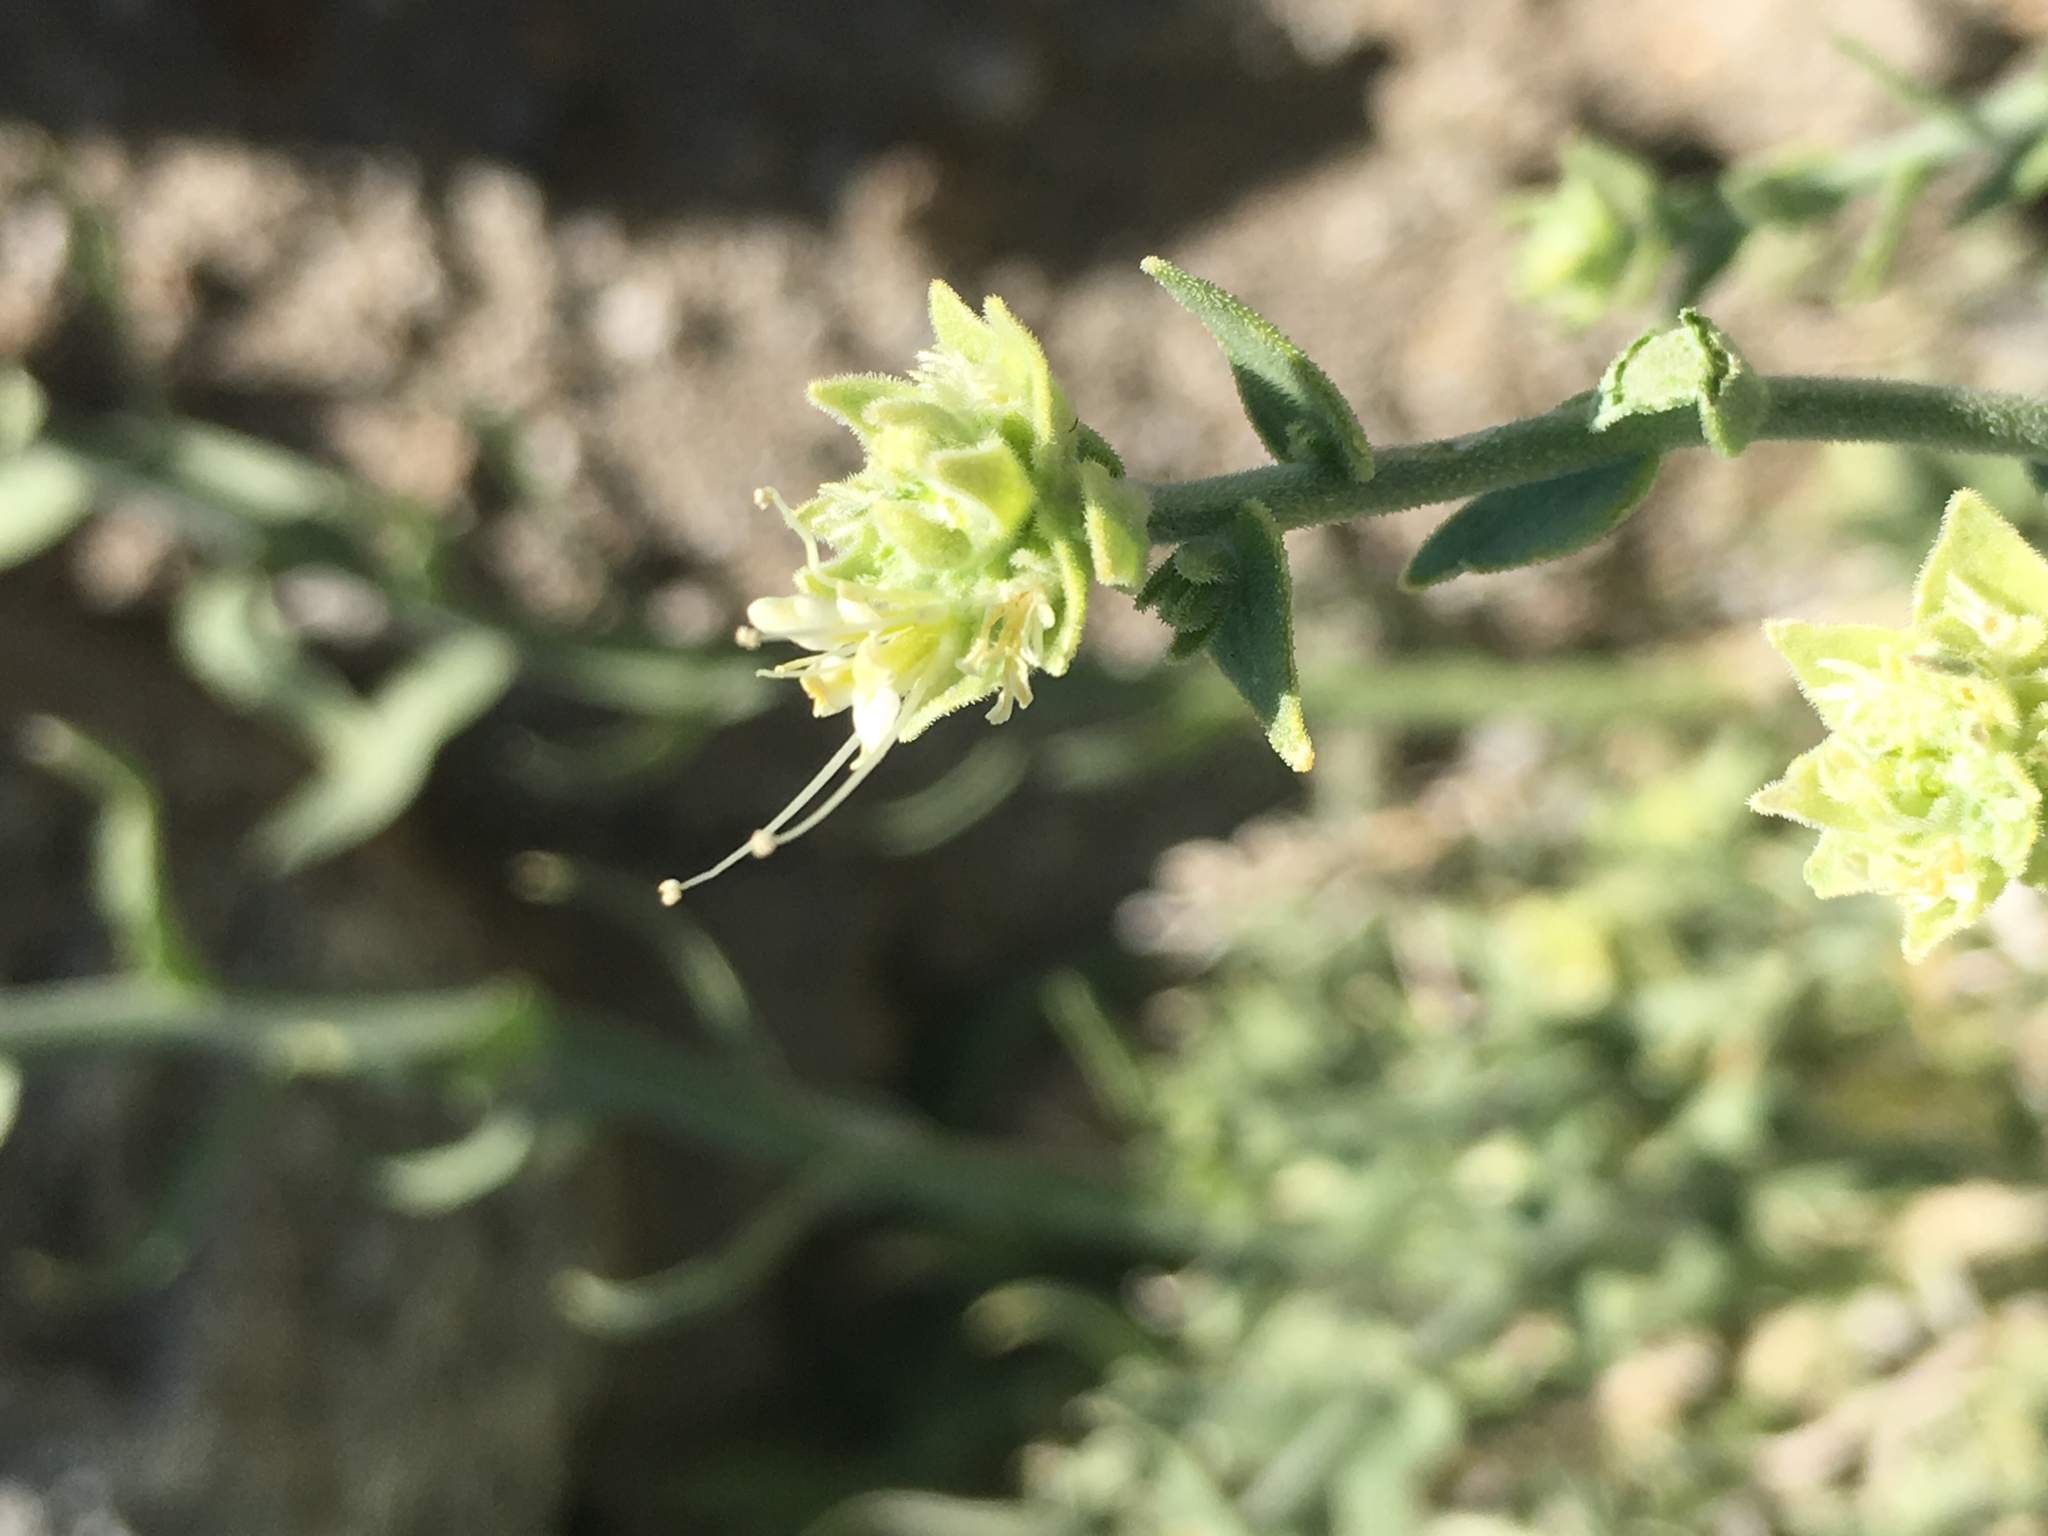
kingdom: Plantae
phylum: Tracheophyta
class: Magnoliopsida
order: Cornales
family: Loasaceae
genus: Petalonyx
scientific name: Petalonyx thurberi
